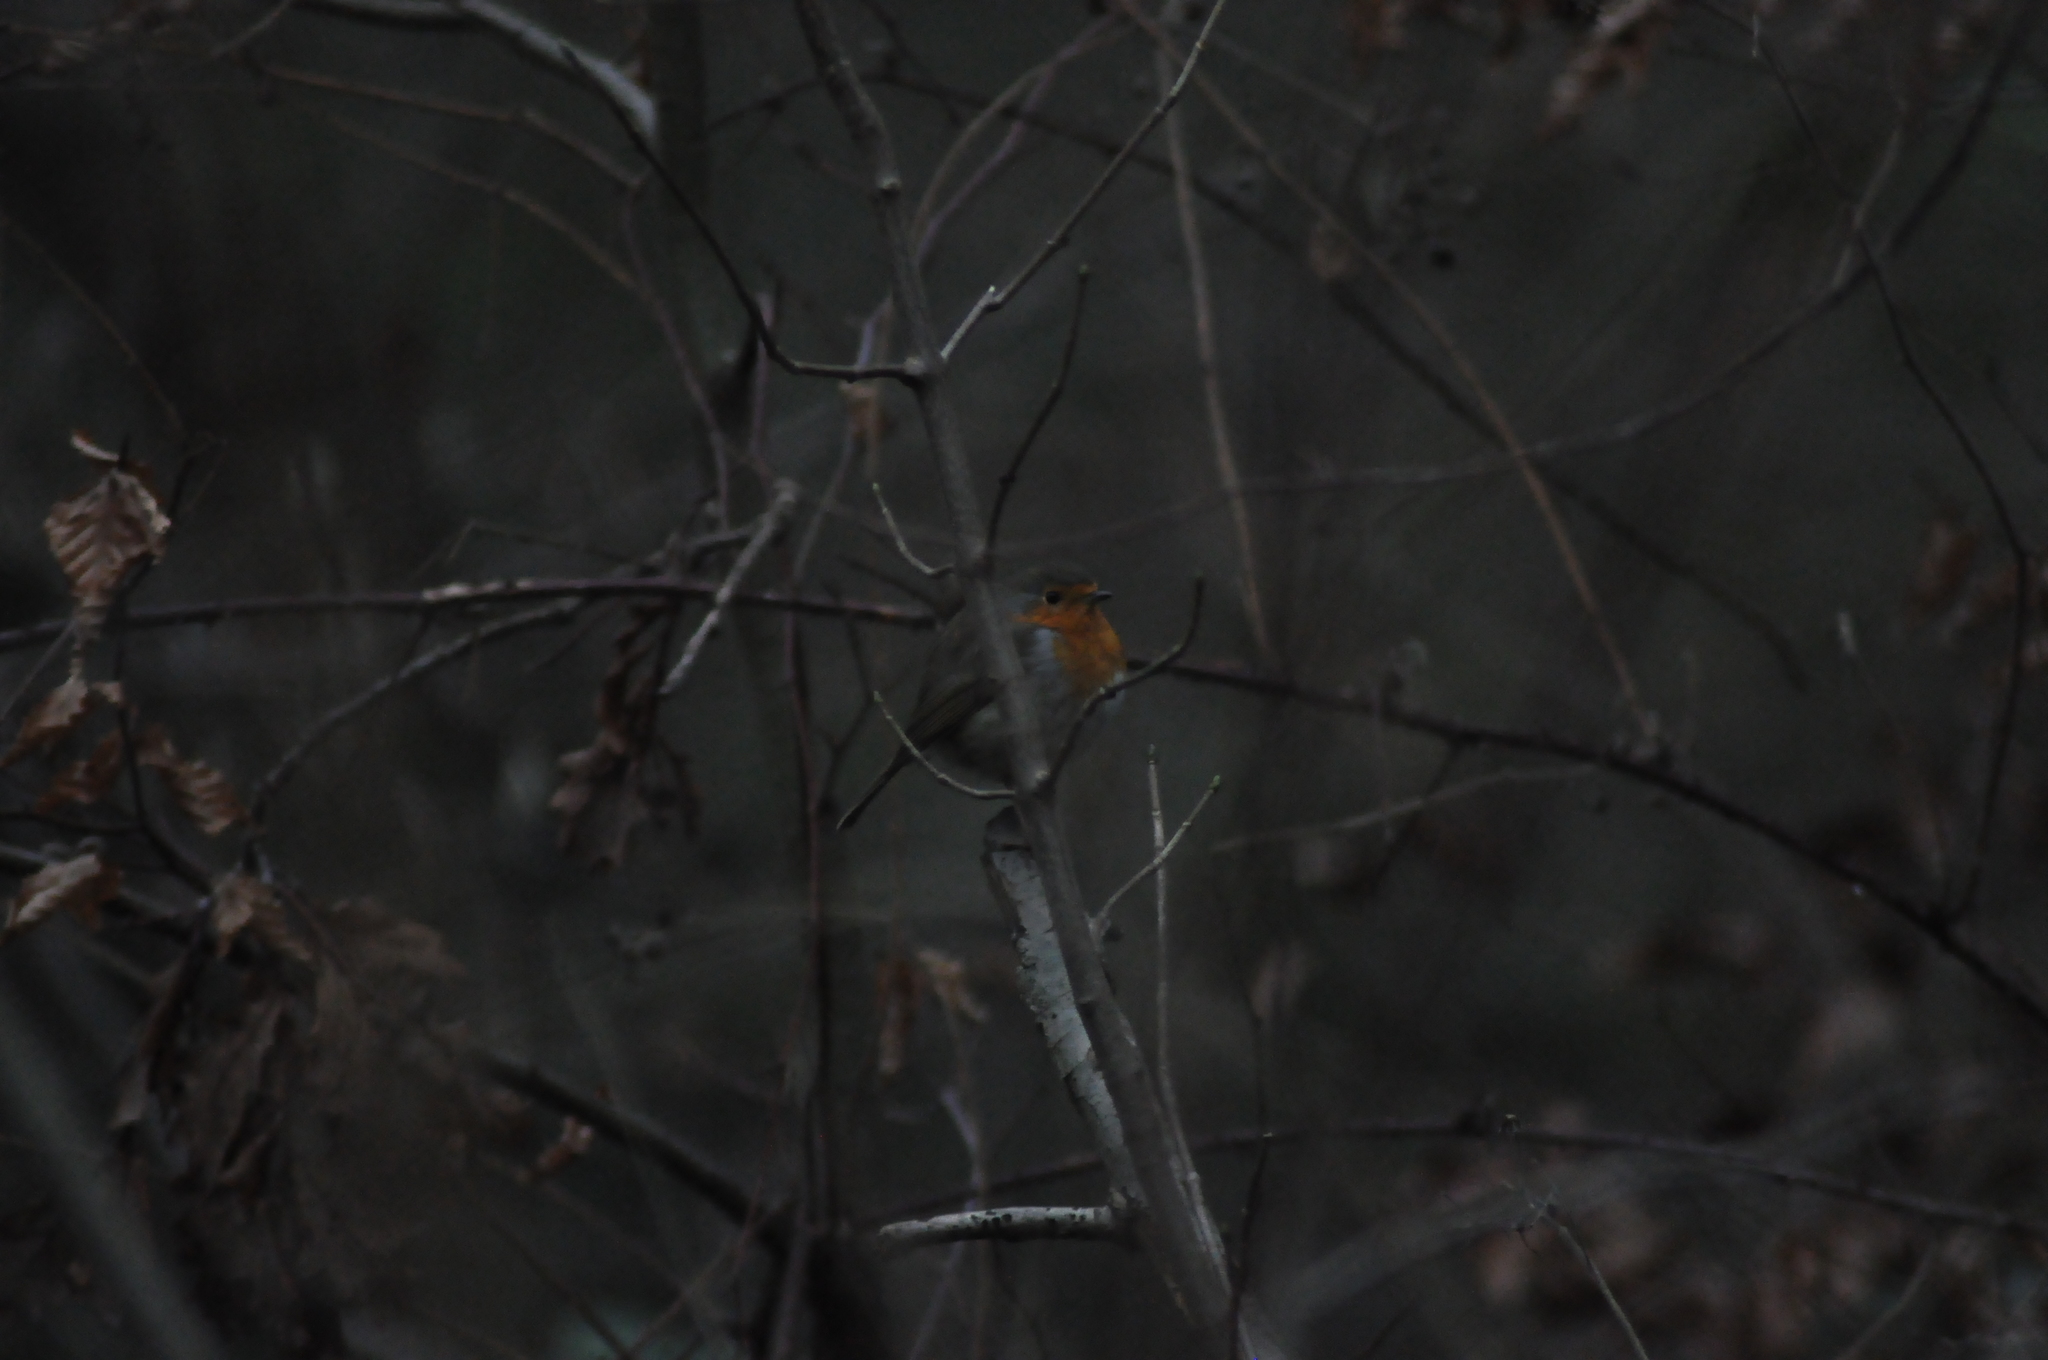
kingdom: Animalia
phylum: Chordata
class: Aves
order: Passeriformes
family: Muscicapidae
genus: Erithacus
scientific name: Erithacus rubecula
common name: European robin
